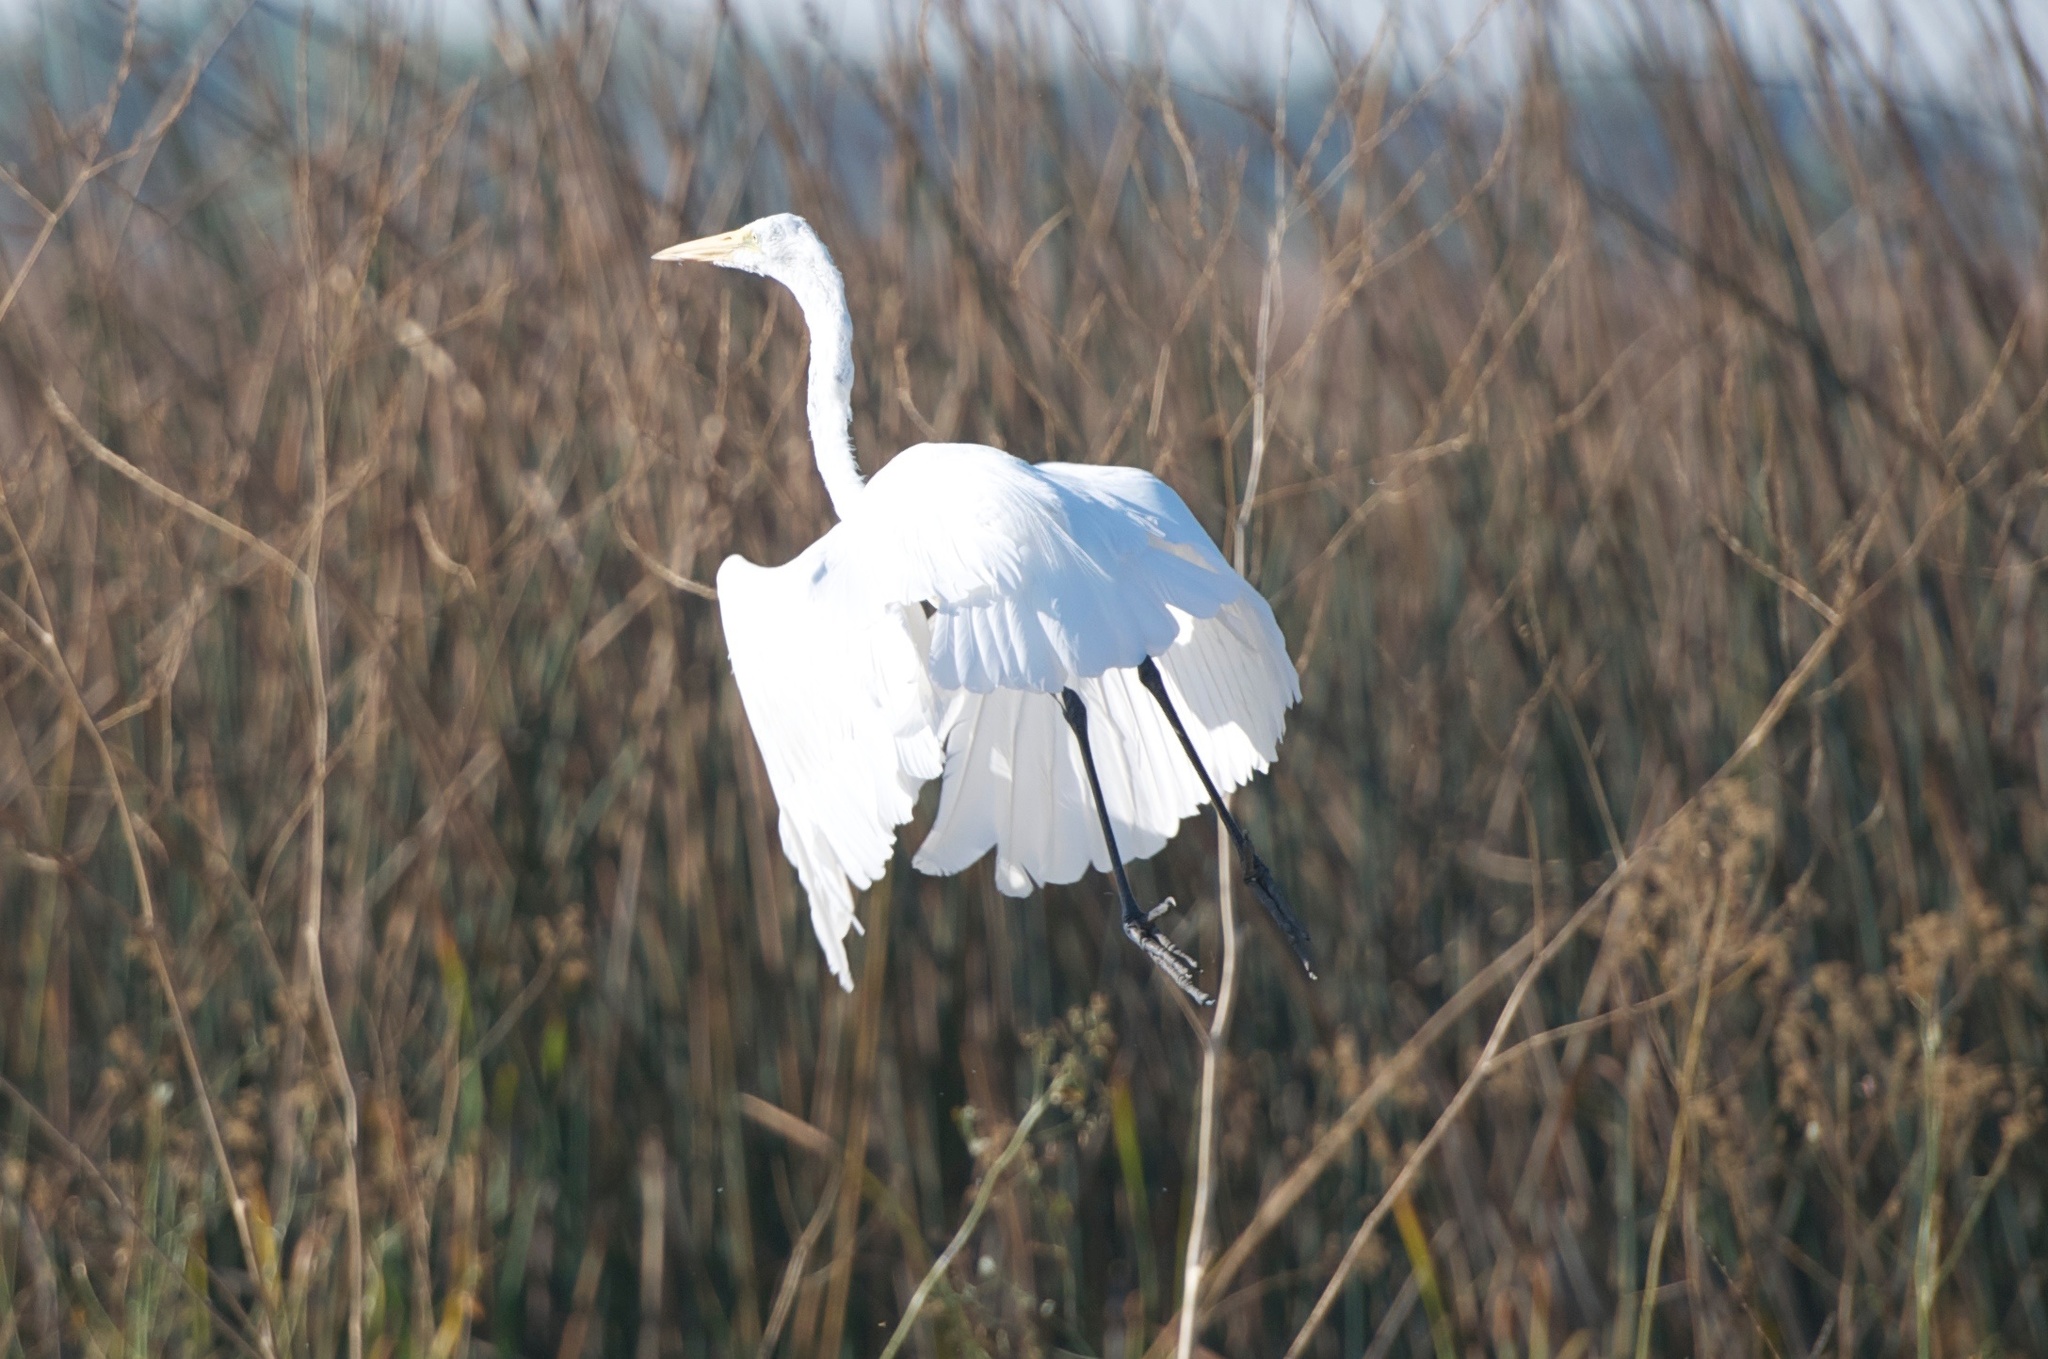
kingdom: Animalia
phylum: Chordata
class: Aves
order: Pelecaniformes
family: Ardeidae
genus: Ardea
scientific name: Ardea alba
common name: Great egret
